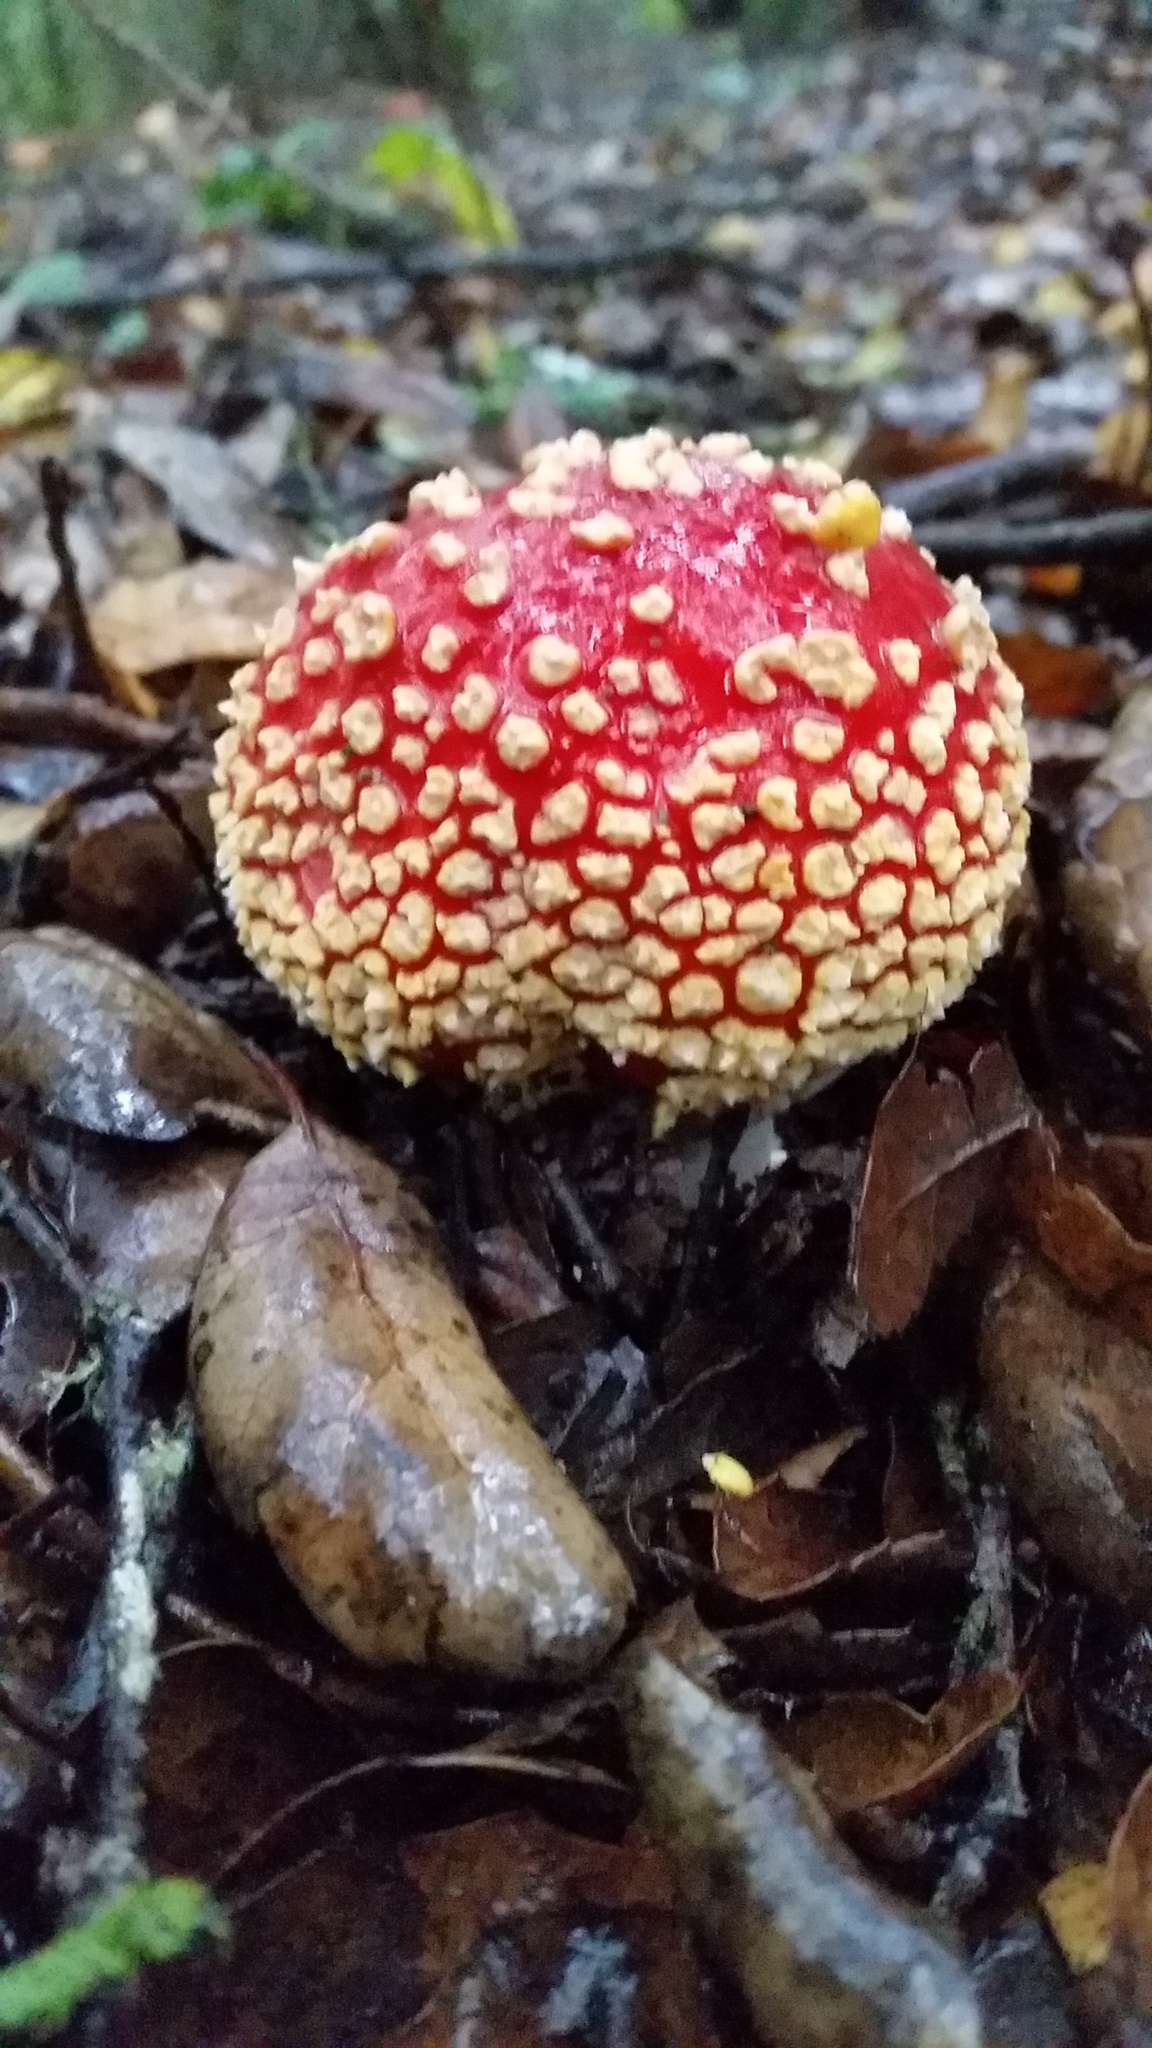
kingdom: Fungi
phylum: Basidiomycota
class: Agaricomycetes
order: Agaricales
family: Amanitaceae
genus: Amanita
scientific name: Amanita muscaria
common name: Fly agaric
